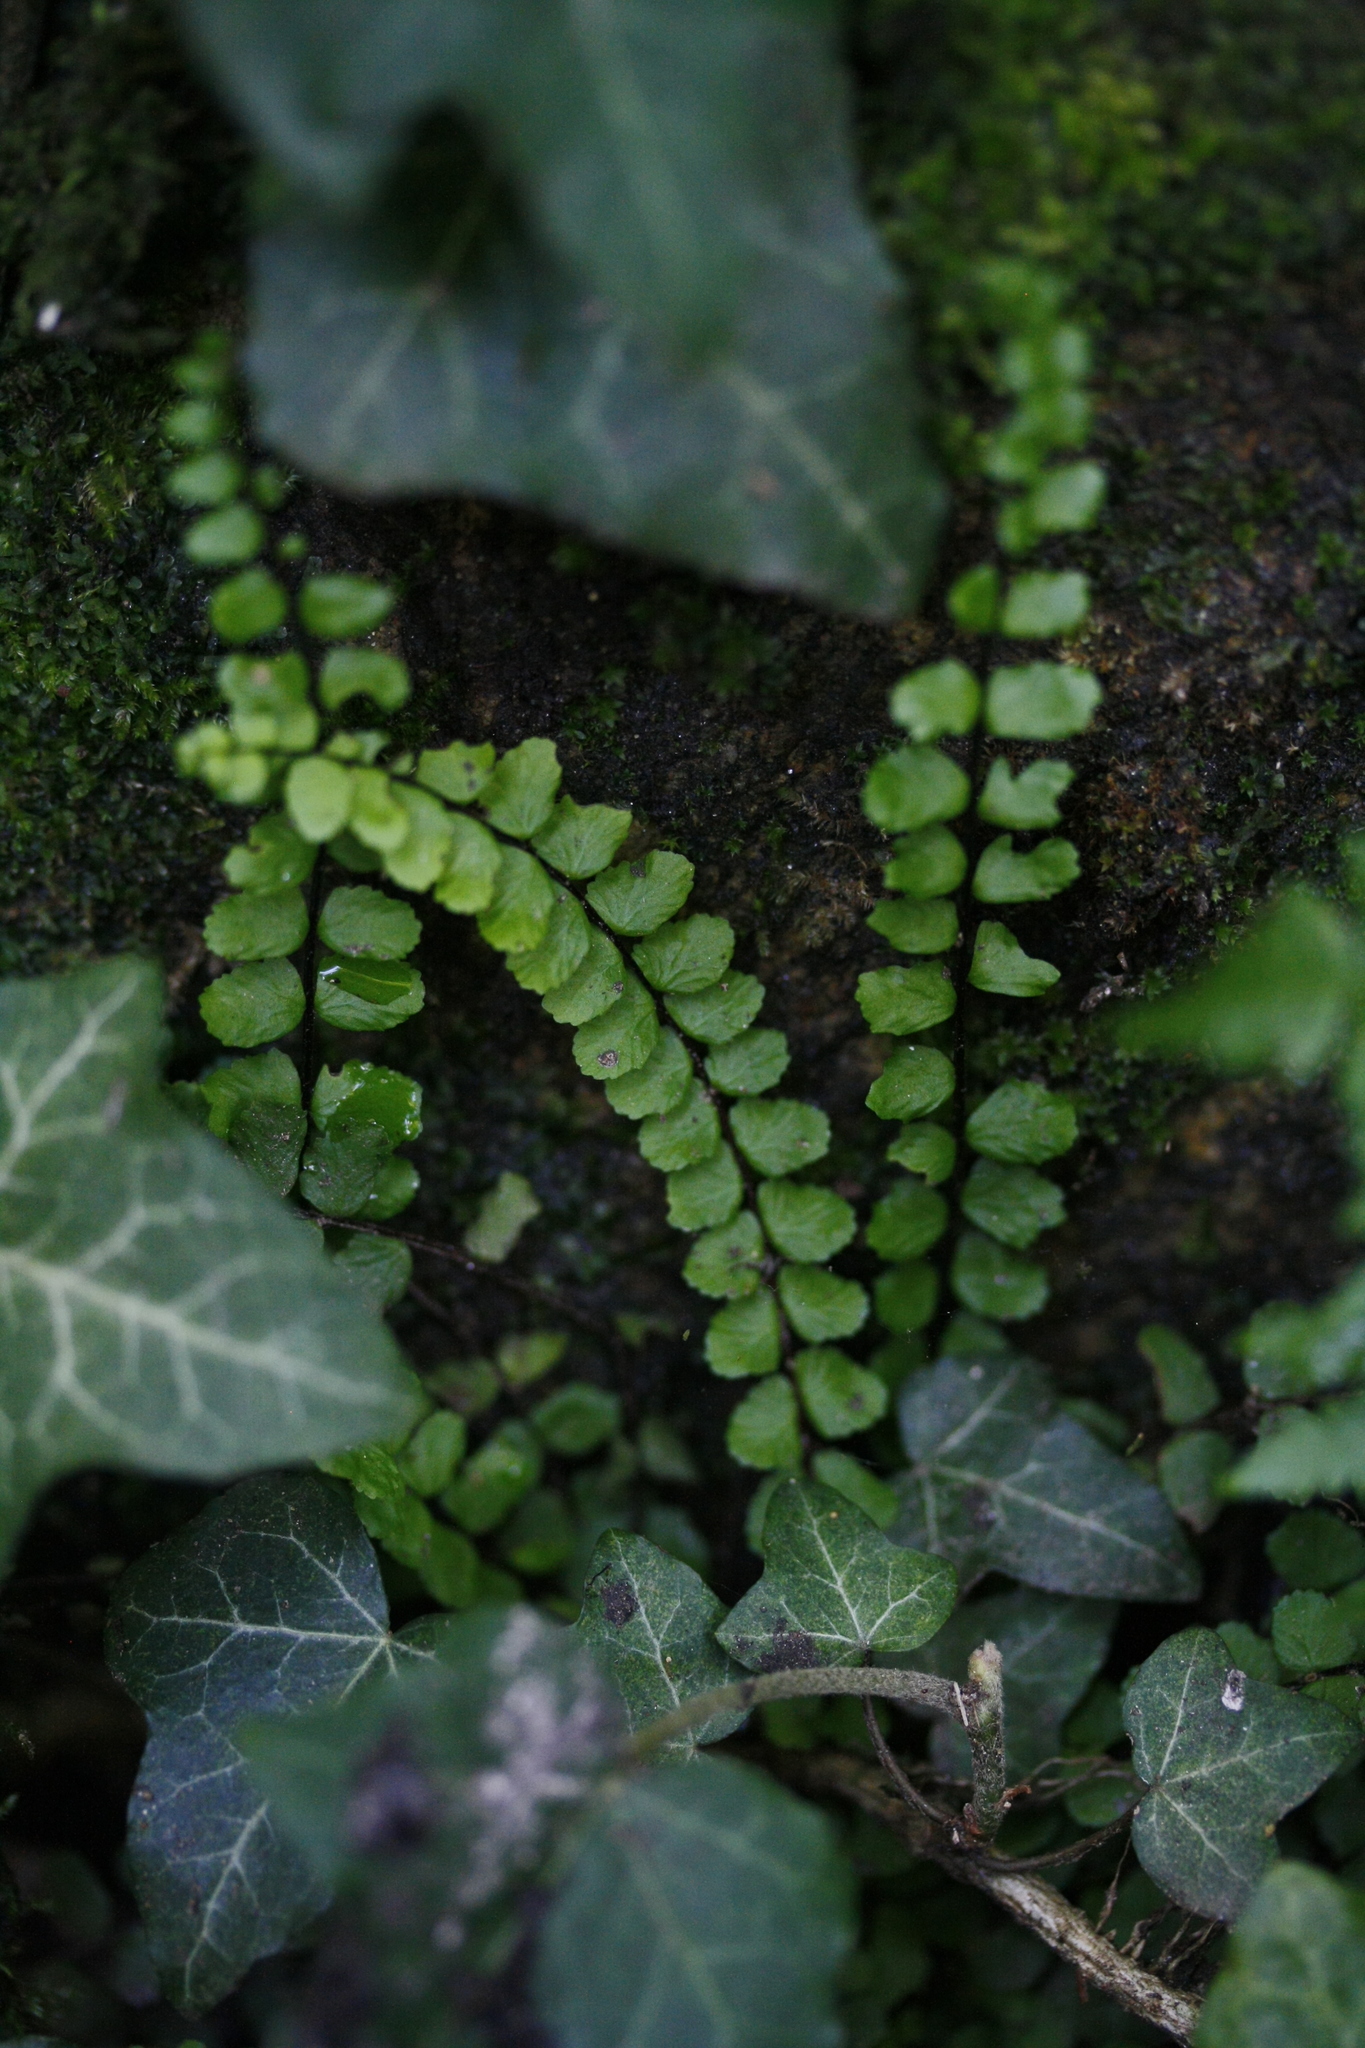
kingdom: Plantae
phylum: Tracheophyta
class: Polypodiopsida
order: Polypodiales
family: Aspleniaceae
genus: Asplenium
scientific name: Asplenium trichomanes
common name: Maidenhair spleenwort
